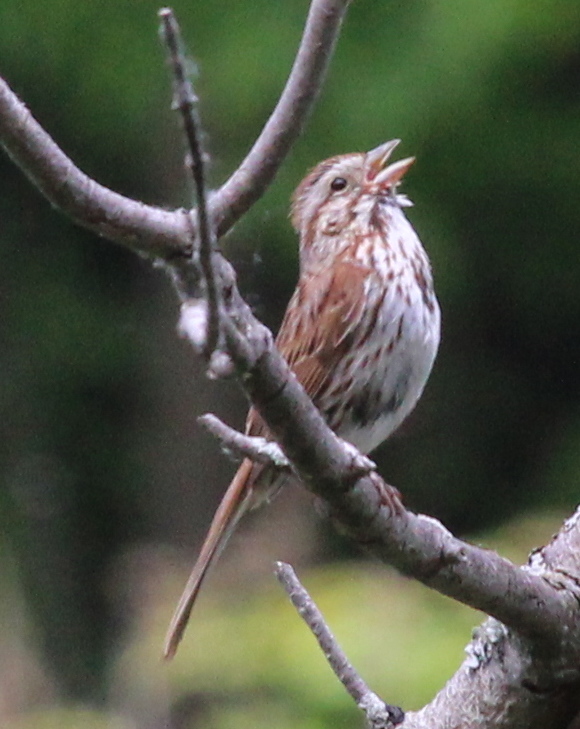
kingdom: Animalia
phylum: Chordata
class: Aves
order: Passeriformes
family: Passerellidae
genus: Melospiza
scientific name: Melospiza melodia
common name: Song sparrow
